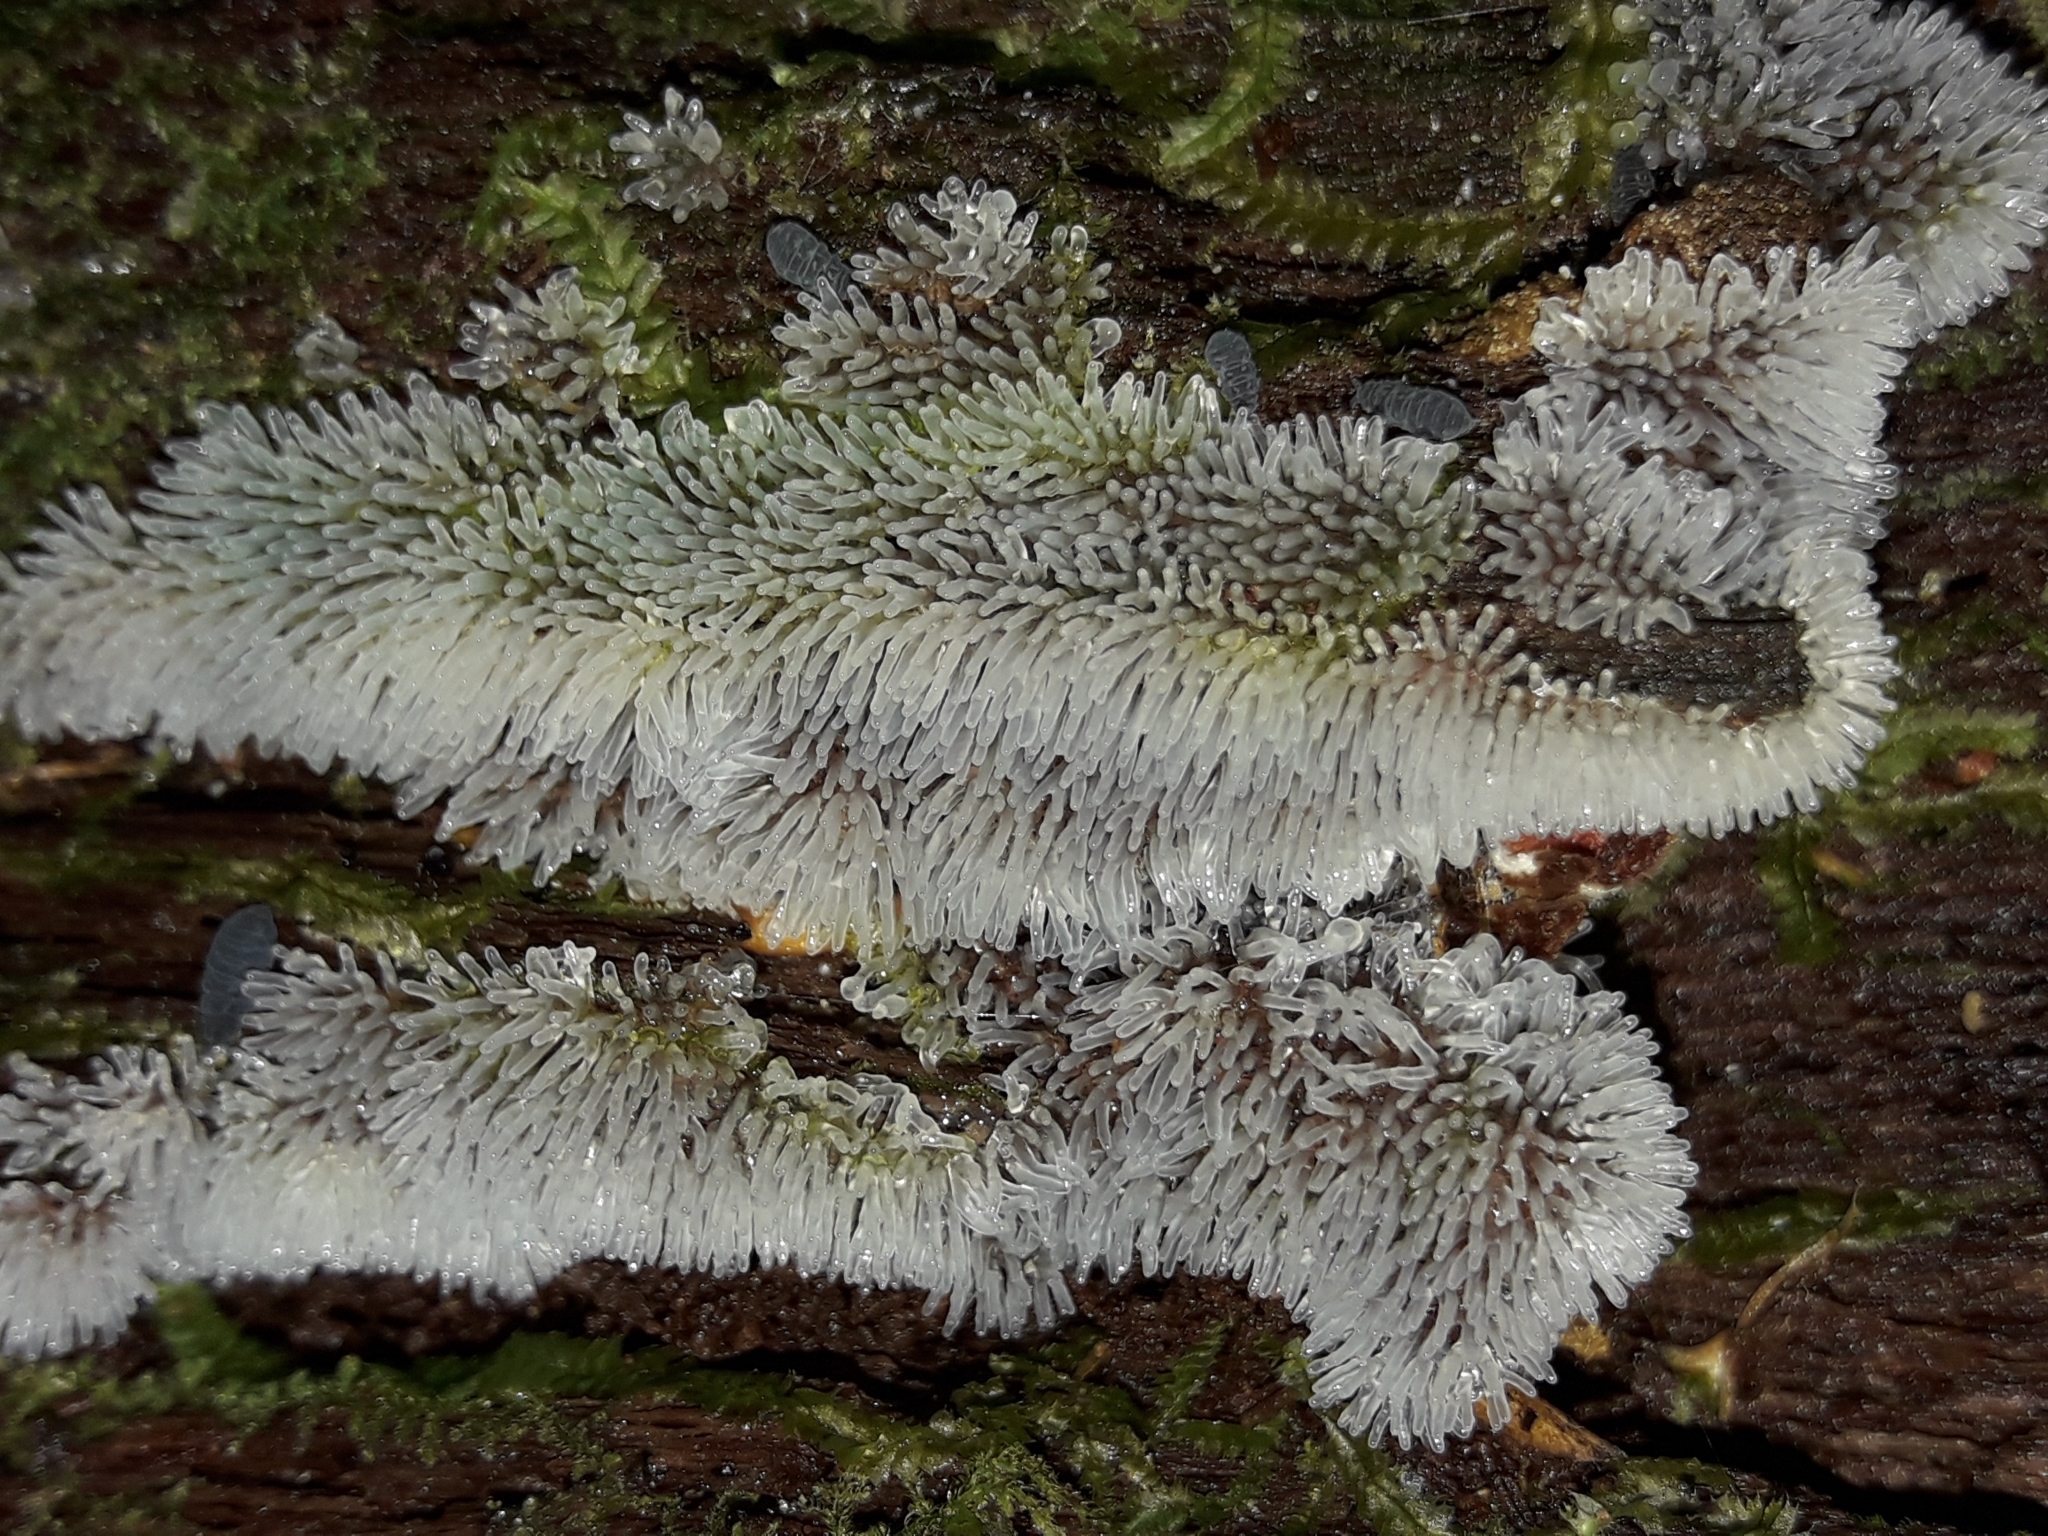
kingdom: Protozoa
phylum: Mycetozoa
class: Protosteliomycetes
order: Ceratiomyxales
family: Ceratiomyxaceae
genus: Ceratiomyxa
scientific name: Ceratiomyxa fruticulosa
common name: Honeycomb coral slime mold
